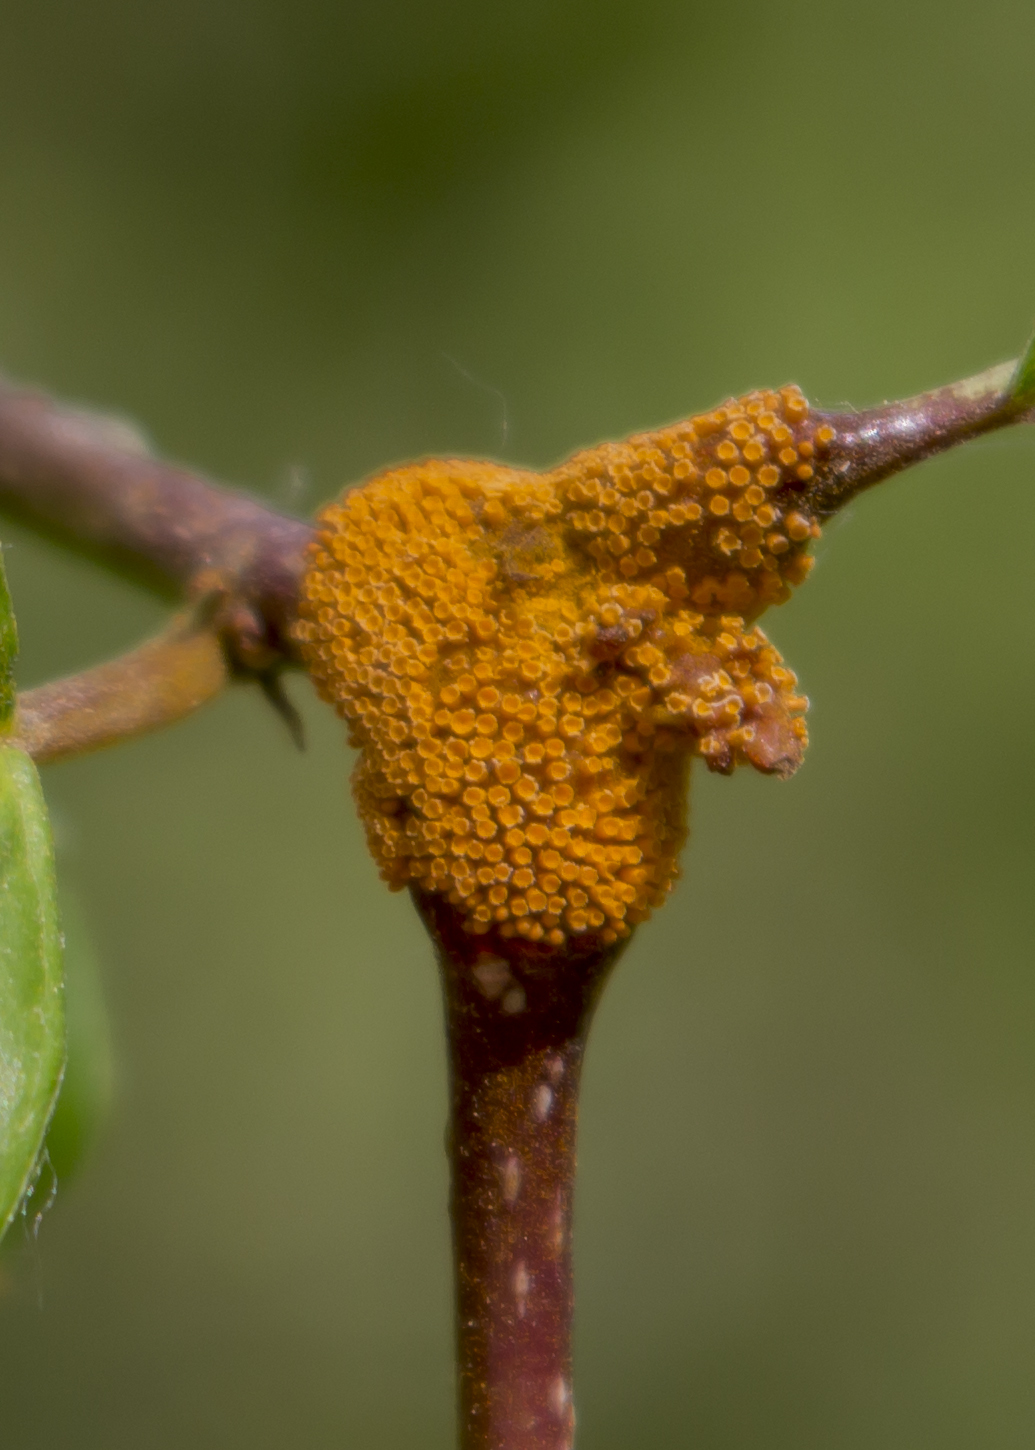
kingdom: Fungi
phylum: Basidiomycota
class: Pucciniomycetes
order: Pucciniales
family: Pucciniaceae
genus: Puccinia
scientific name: Puccinia coronata
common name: Crown rust
